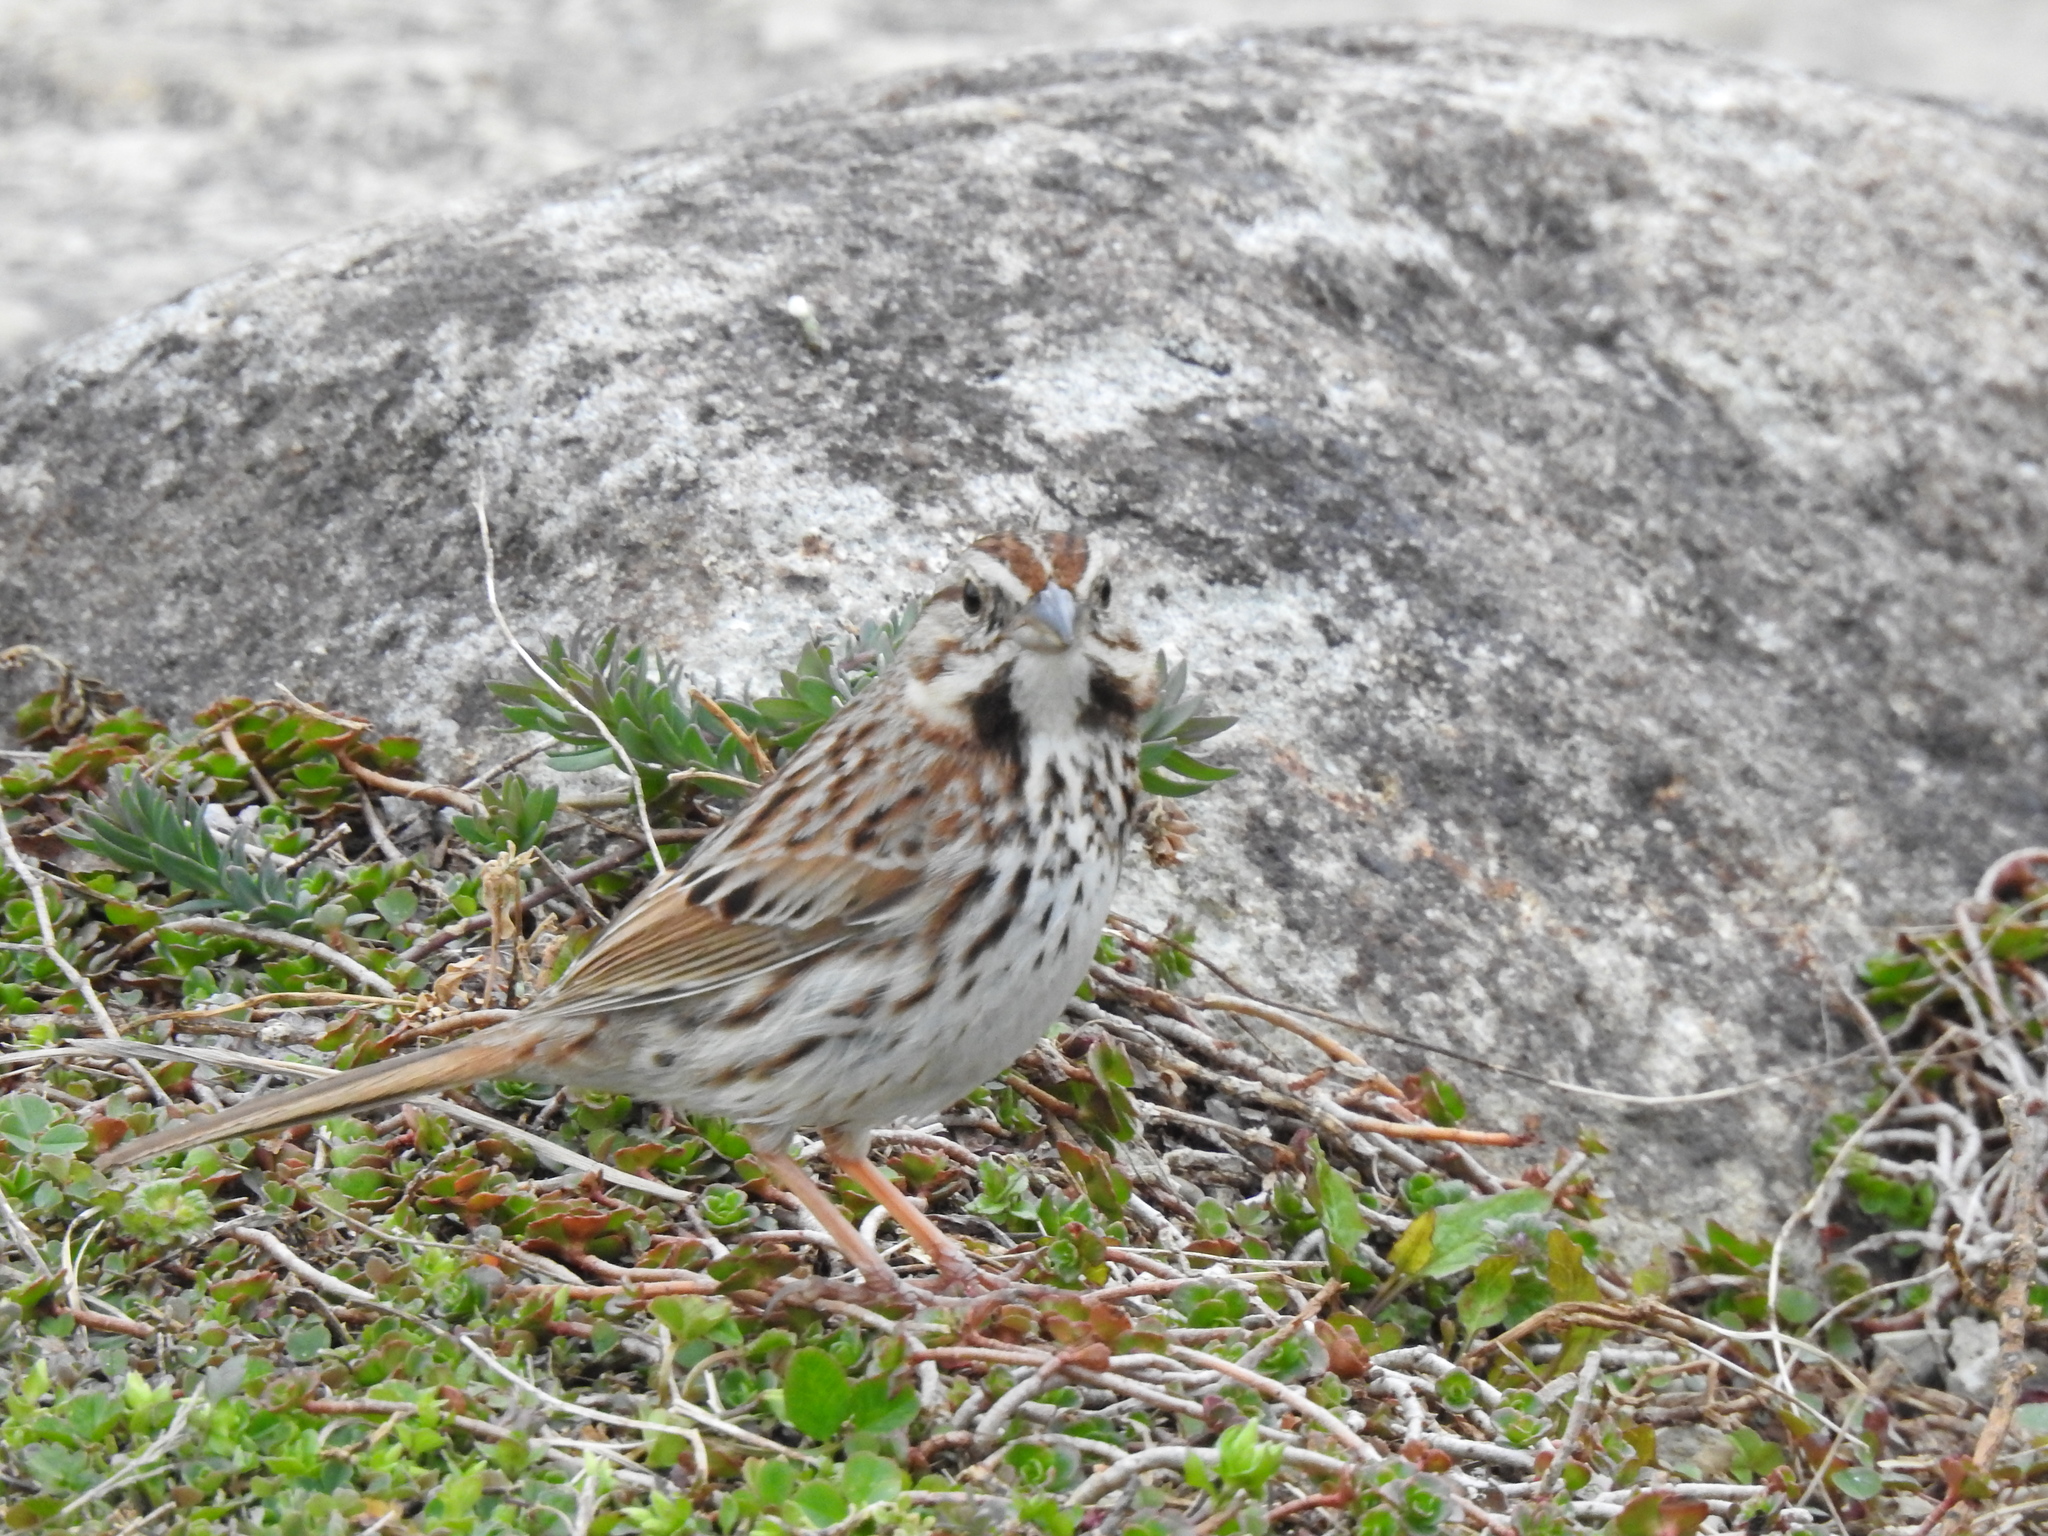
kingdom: Animalia
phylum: Chordata
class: Aves
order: Passeriformes
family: Passerellidae
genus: Melospiza
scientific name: Melospiza melodia
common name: Song sparrow
